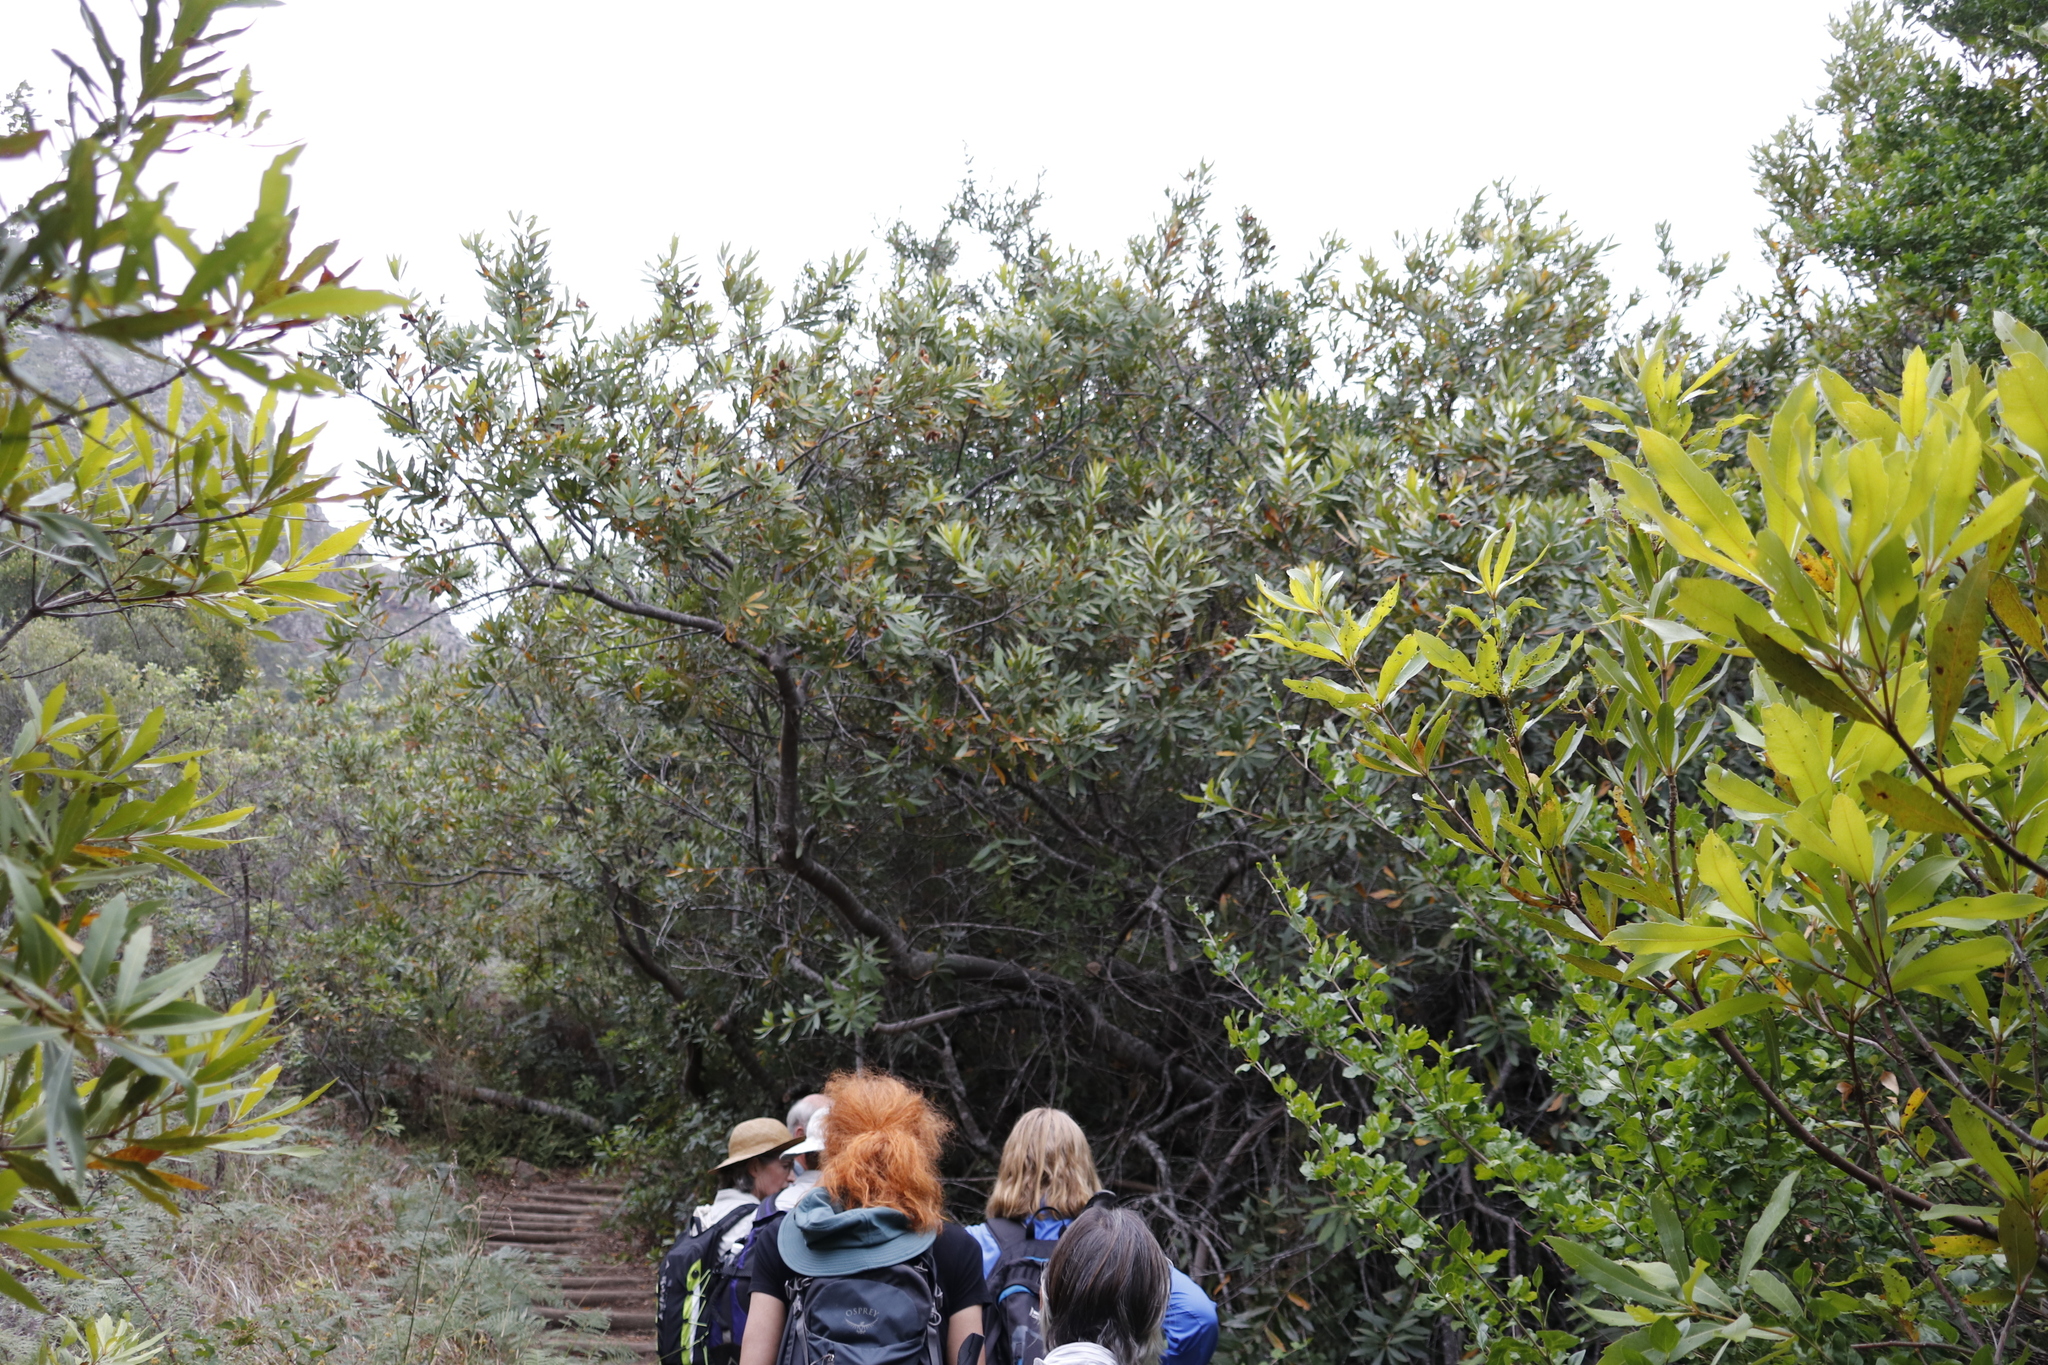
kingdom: Plantae
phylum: Tracheophyta
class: Magnoliopsida
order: Proteales
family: Proteaceae
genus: Brabejum
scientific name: Brabejum stellatifolium
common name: Wild almond
